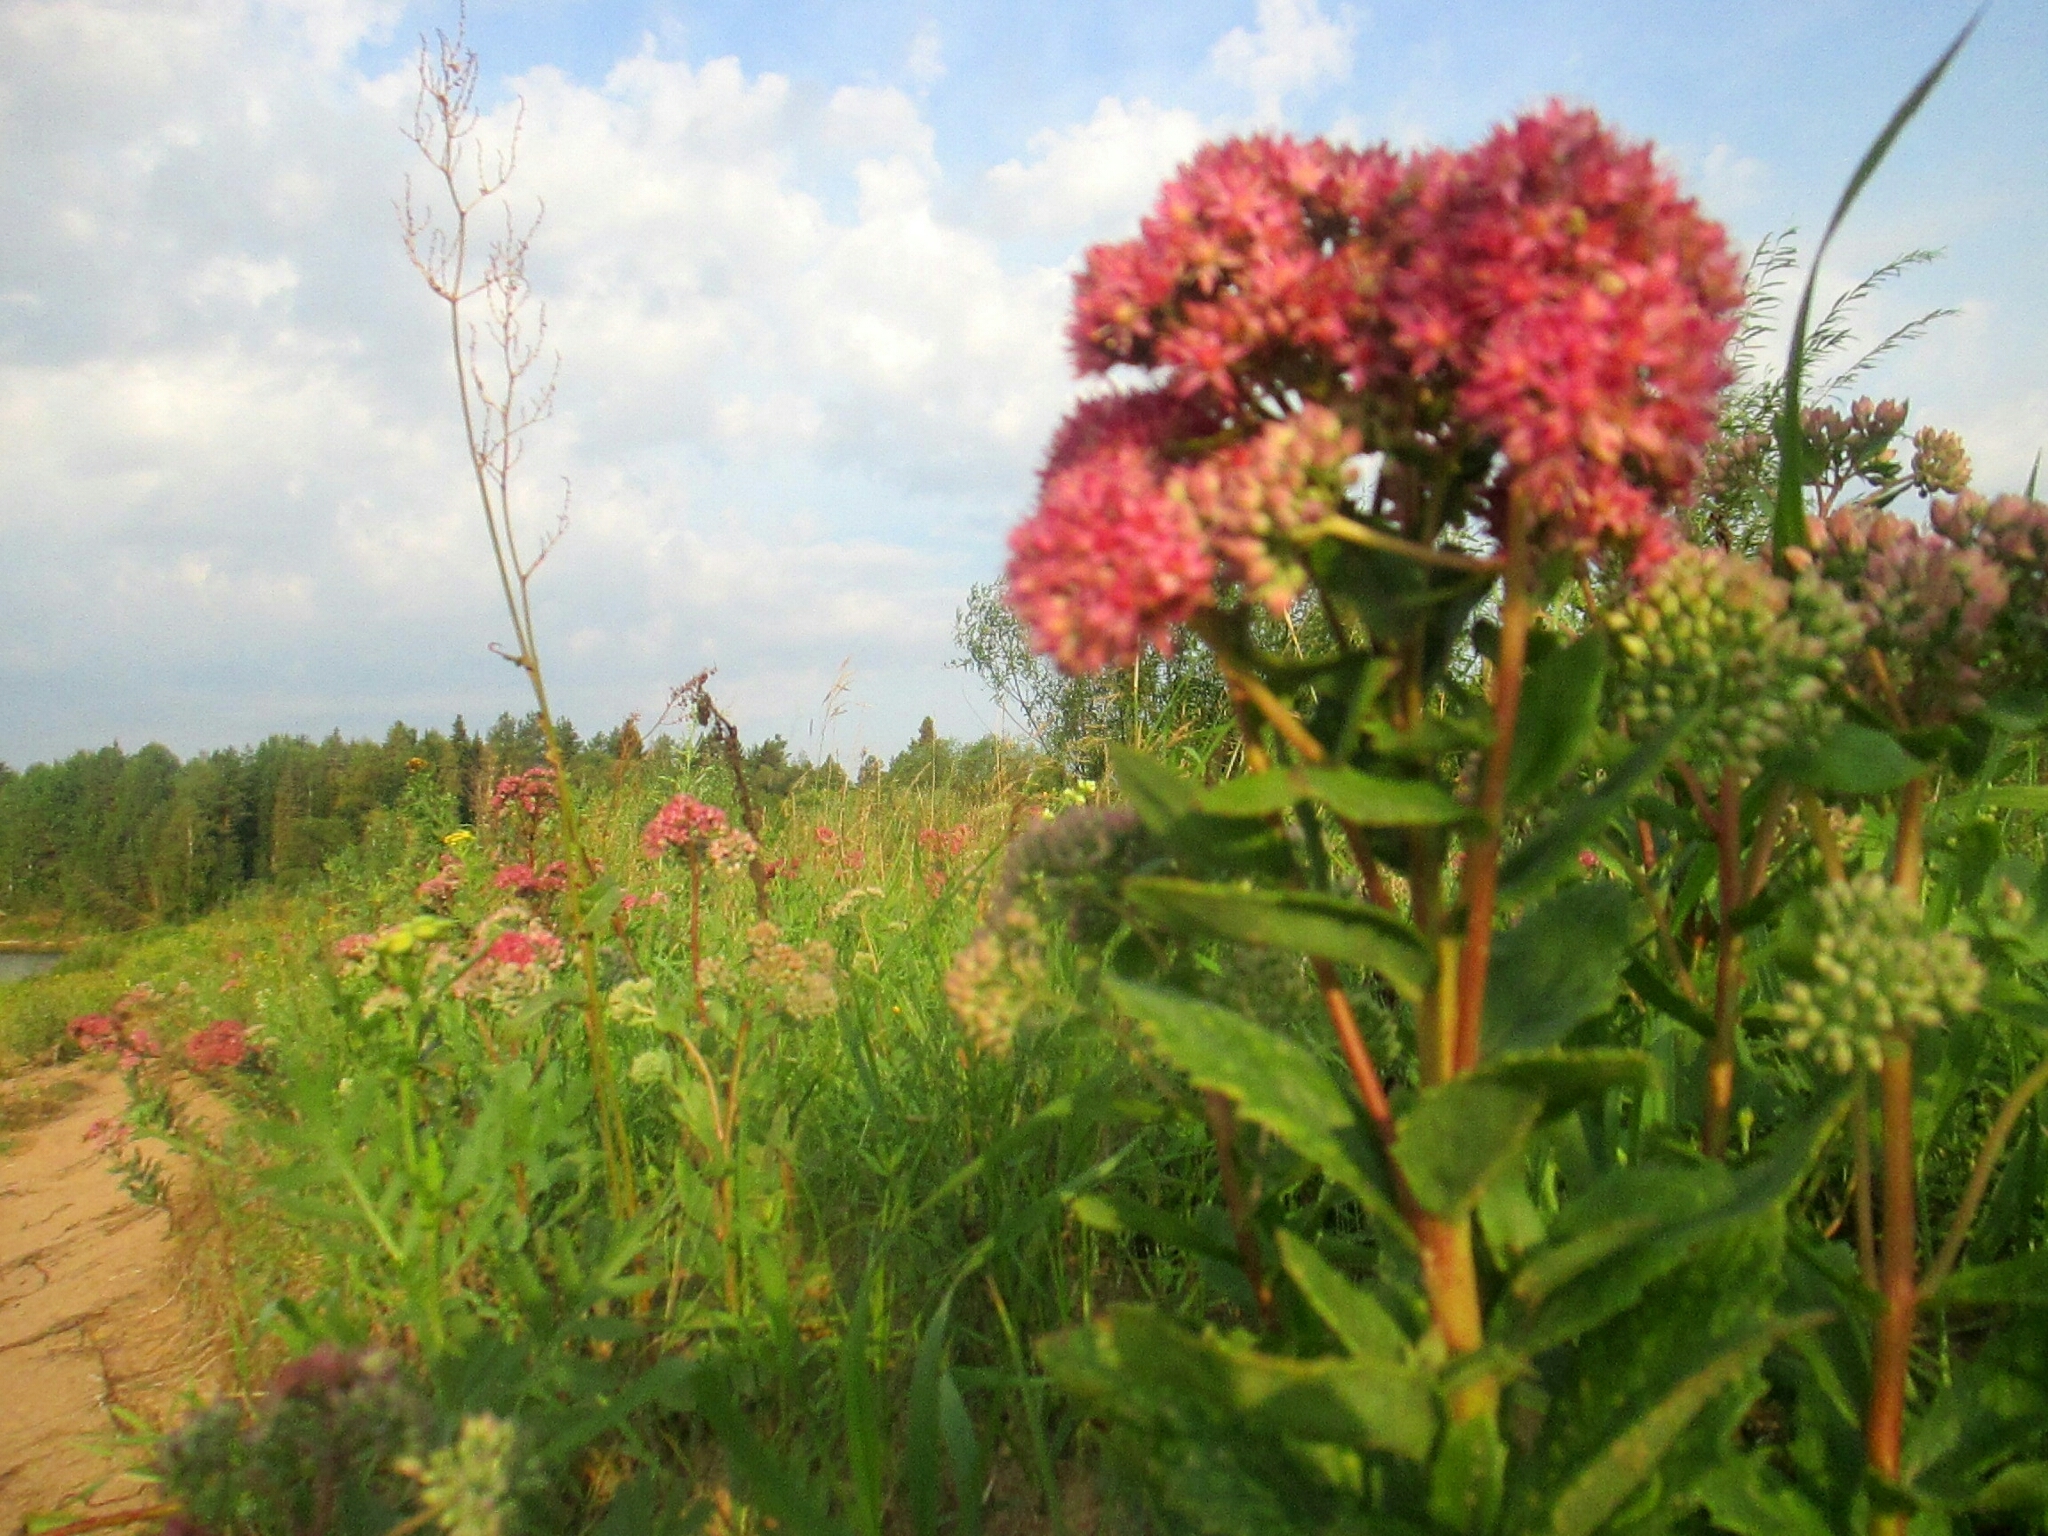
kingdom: Plantae
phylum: Tracheophyta
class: Magnoliopsida
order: Saxifragales
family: Crassulaceae
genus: Hylotelephium
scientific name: Hylotelephium telephium
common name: Live-forever
